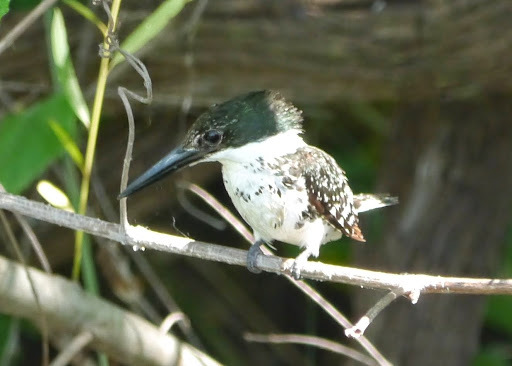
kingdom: Animalia
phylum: Chordata
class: Aves
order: Coraciiformes
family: Alcedinidae
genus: Chloroceryle
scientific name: Chloroceryle americana
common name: Green kingfisher
